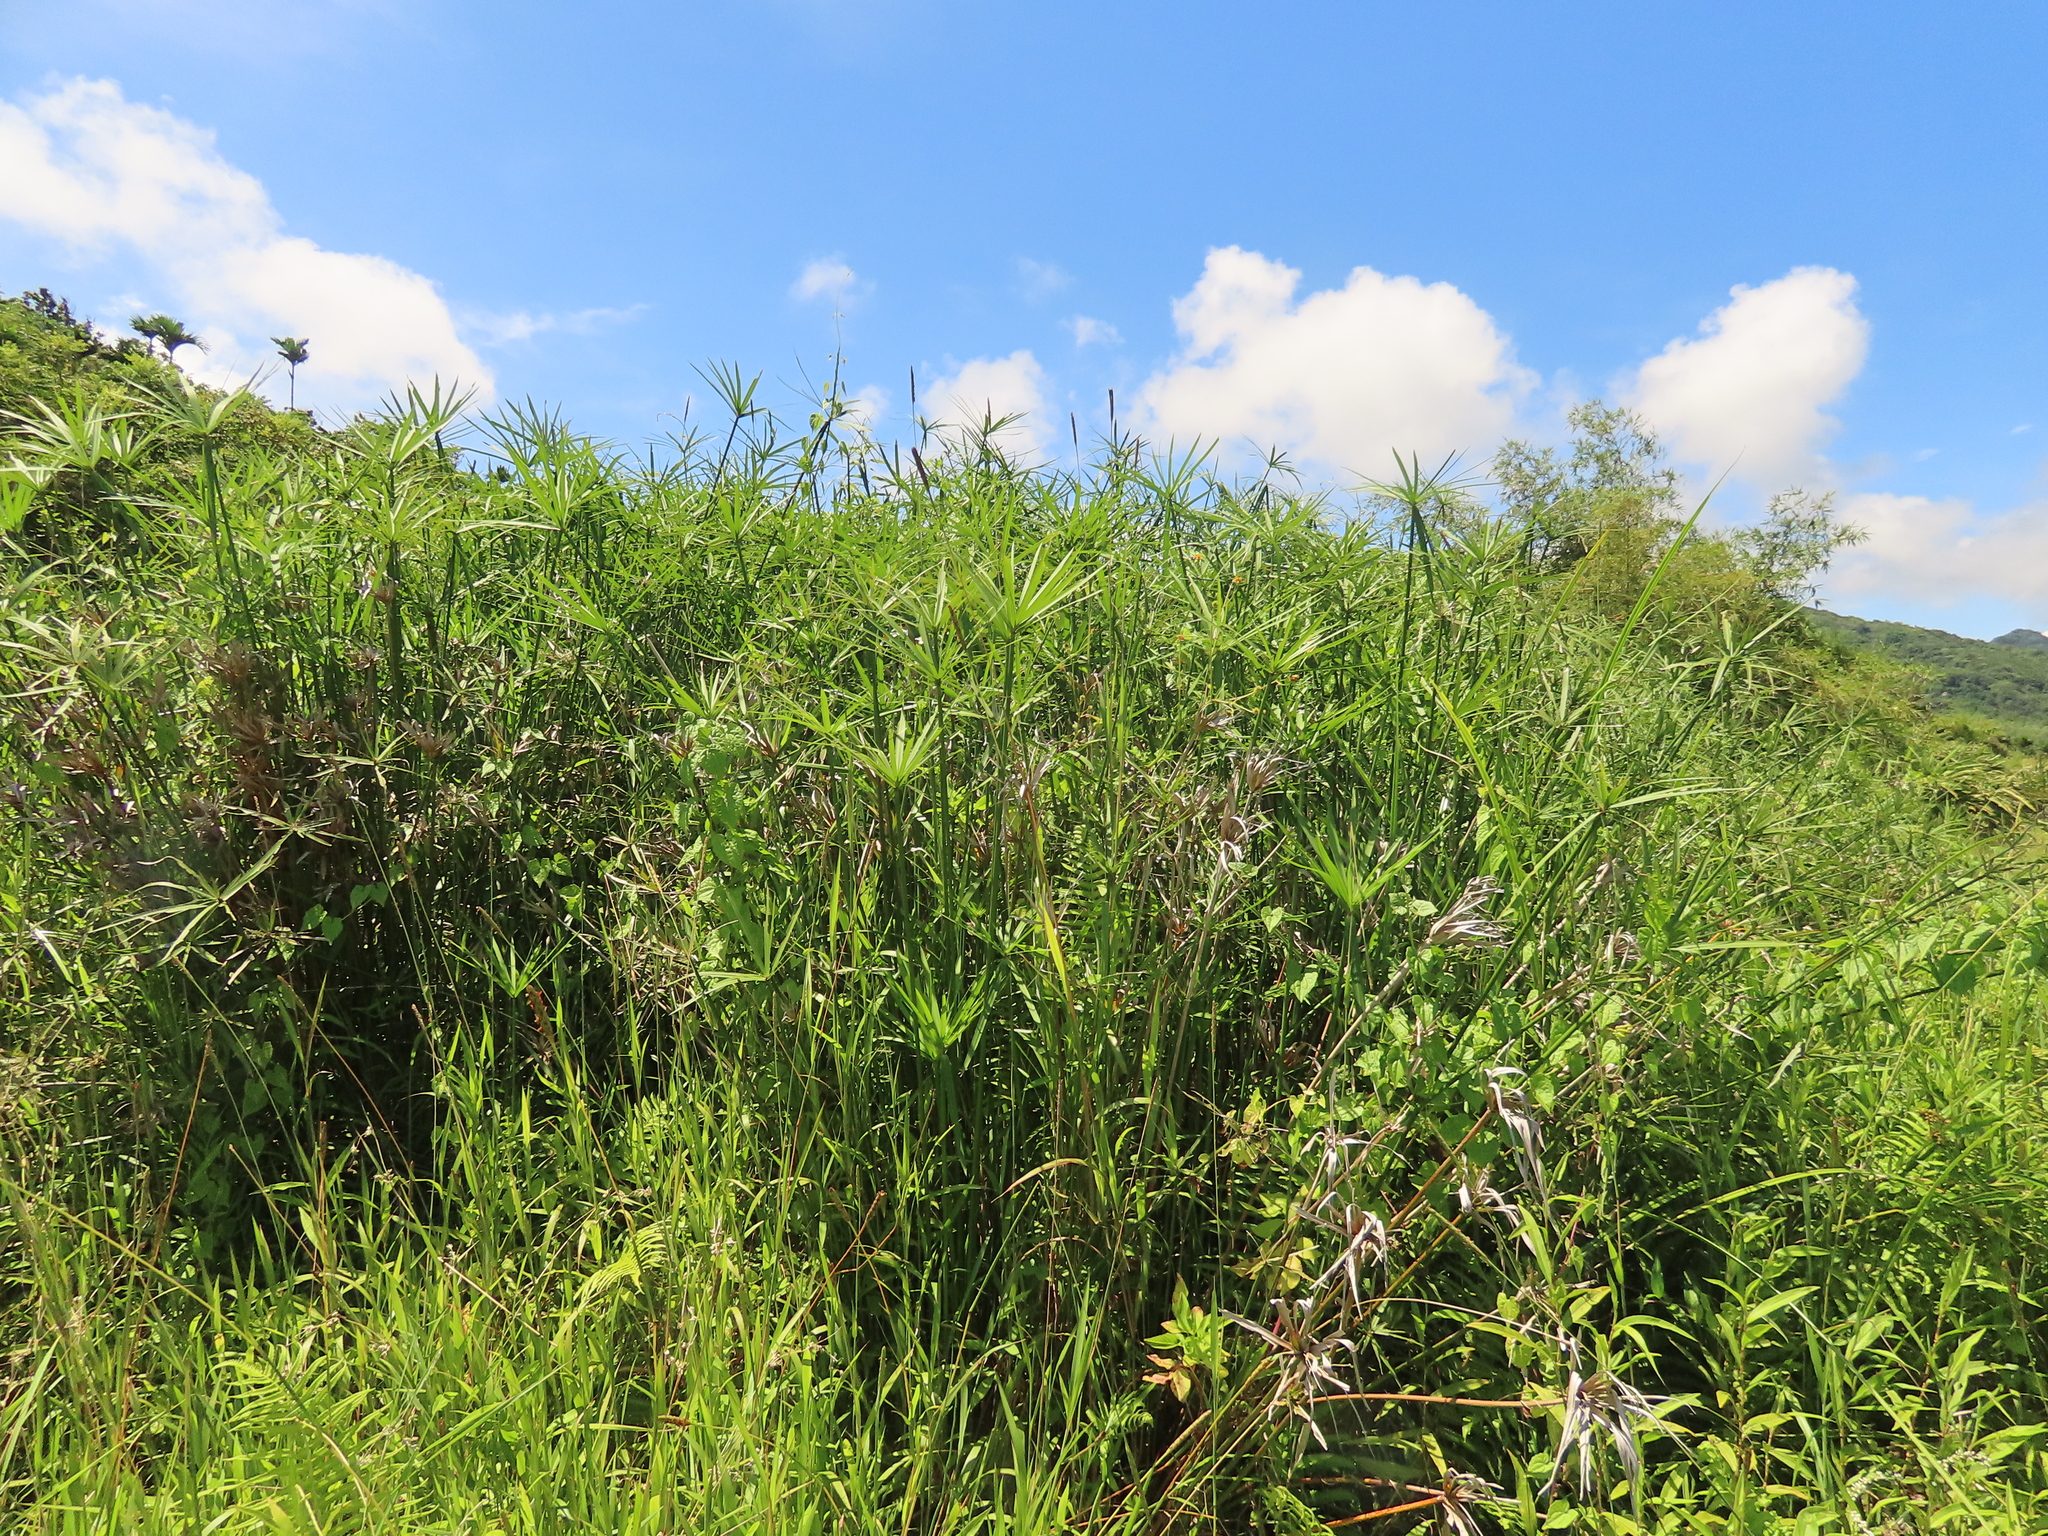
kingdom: Plantae
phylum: Tracheophyta
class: Liliopsida
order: Poales
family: Cyperaceae
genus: Cyperus
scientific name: Cyperus alternifolius
